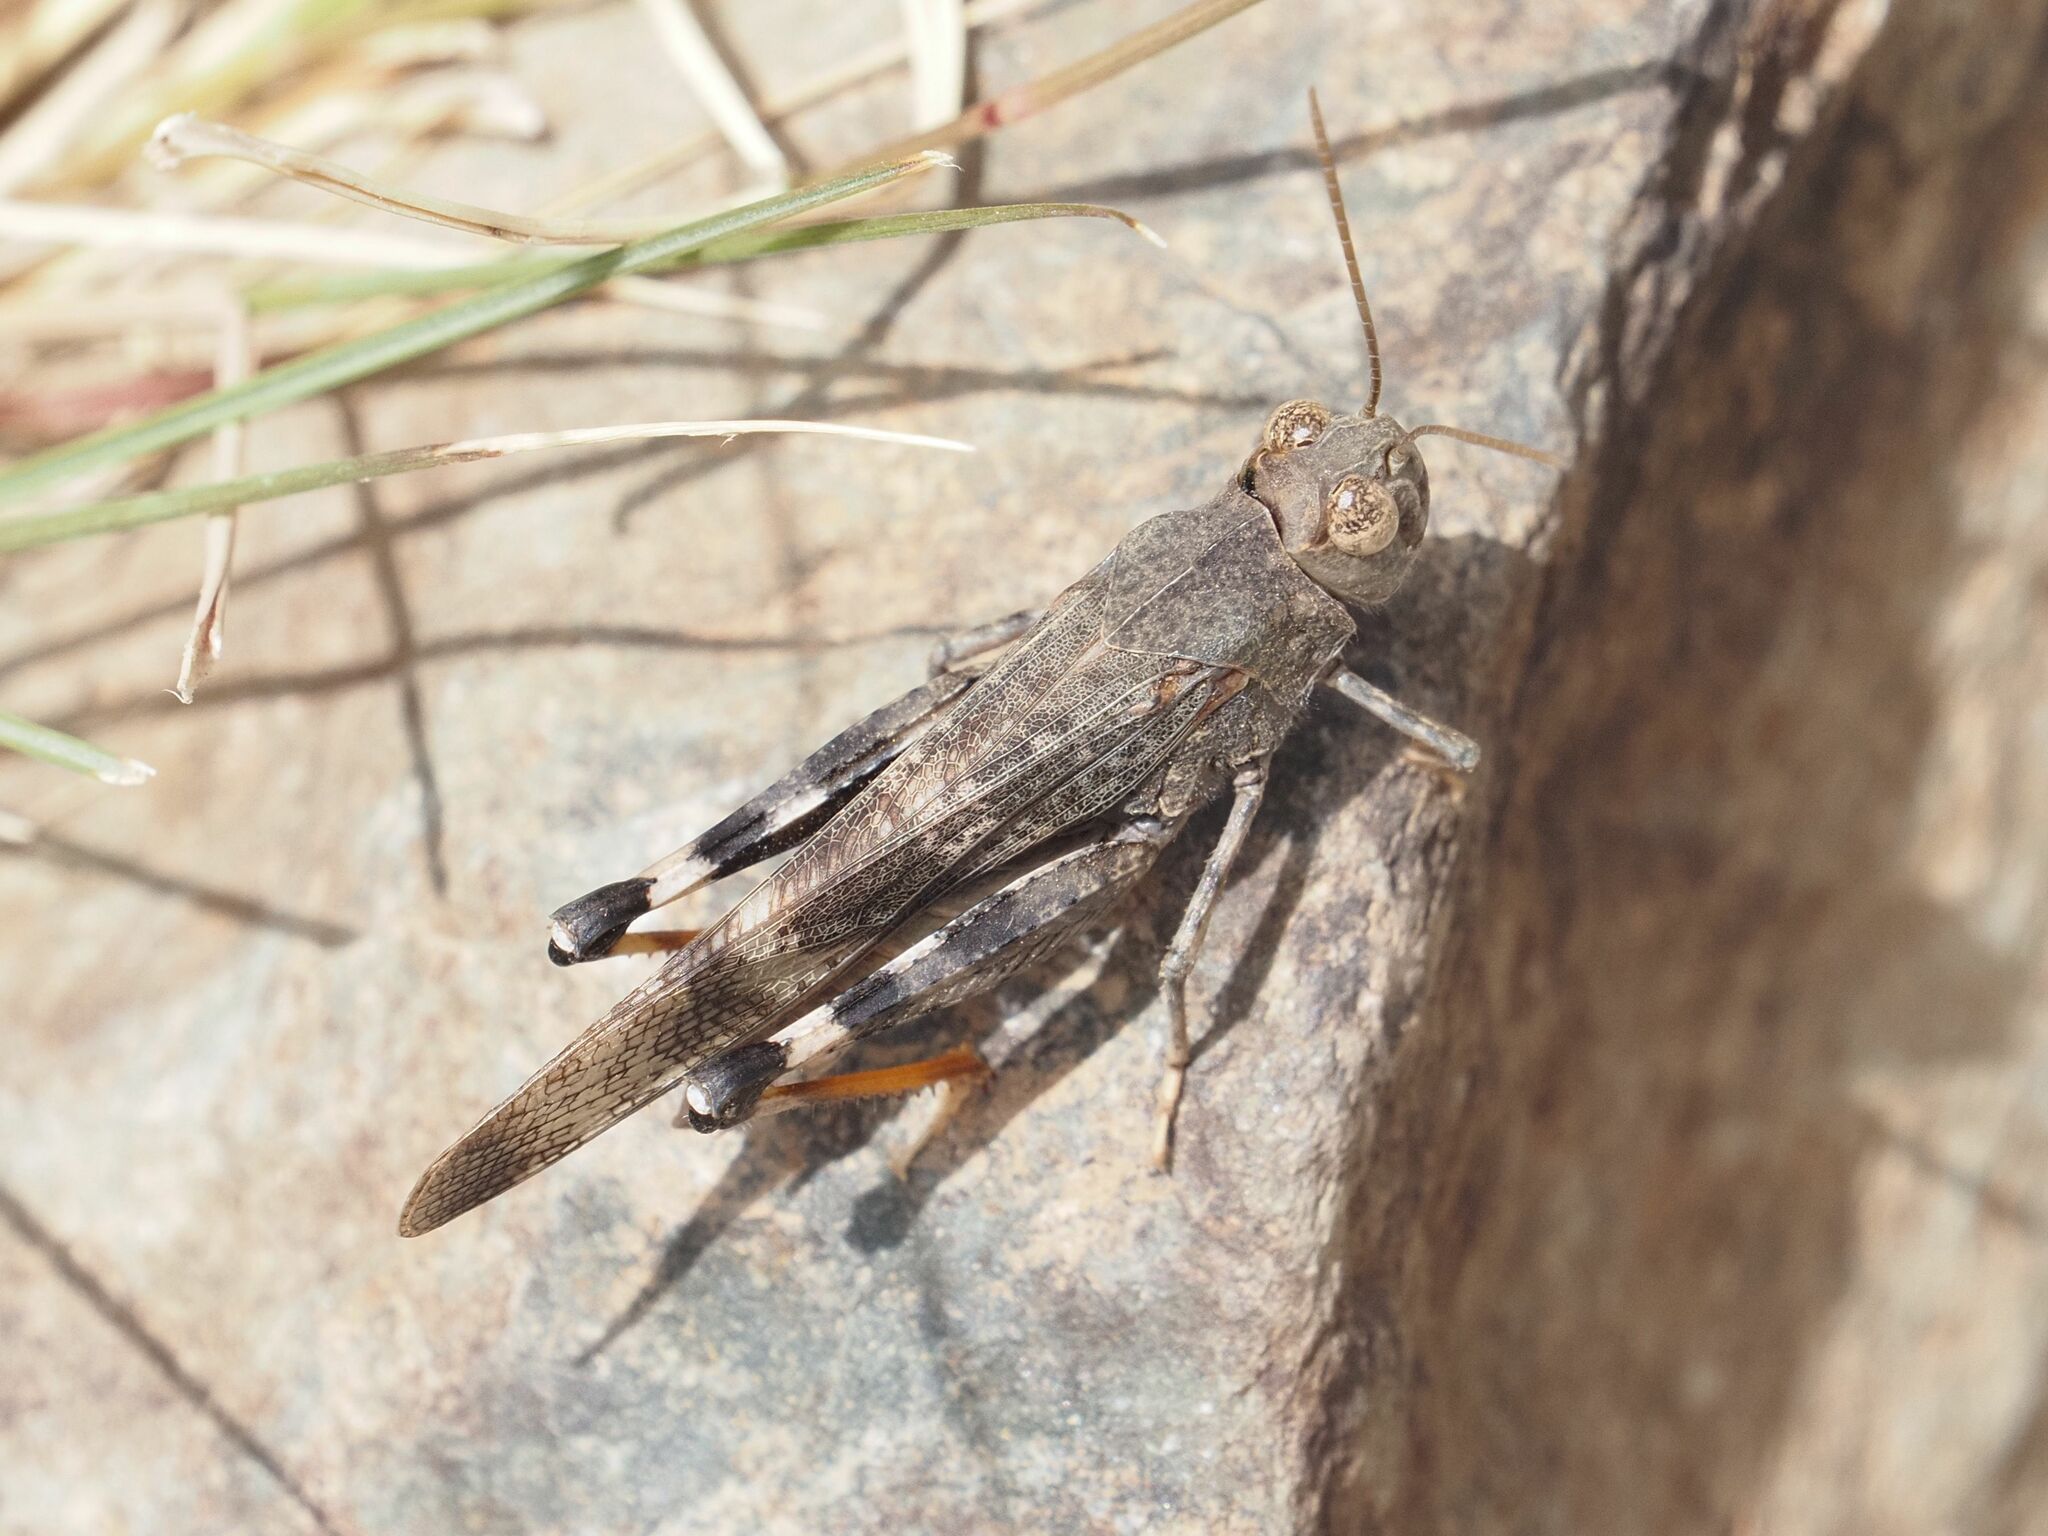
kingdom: Animalia
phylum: Arthropoda
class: Insecta
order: Orthoptera
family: Acrididae
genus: Scintharista
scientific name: Scintharista notabilis
